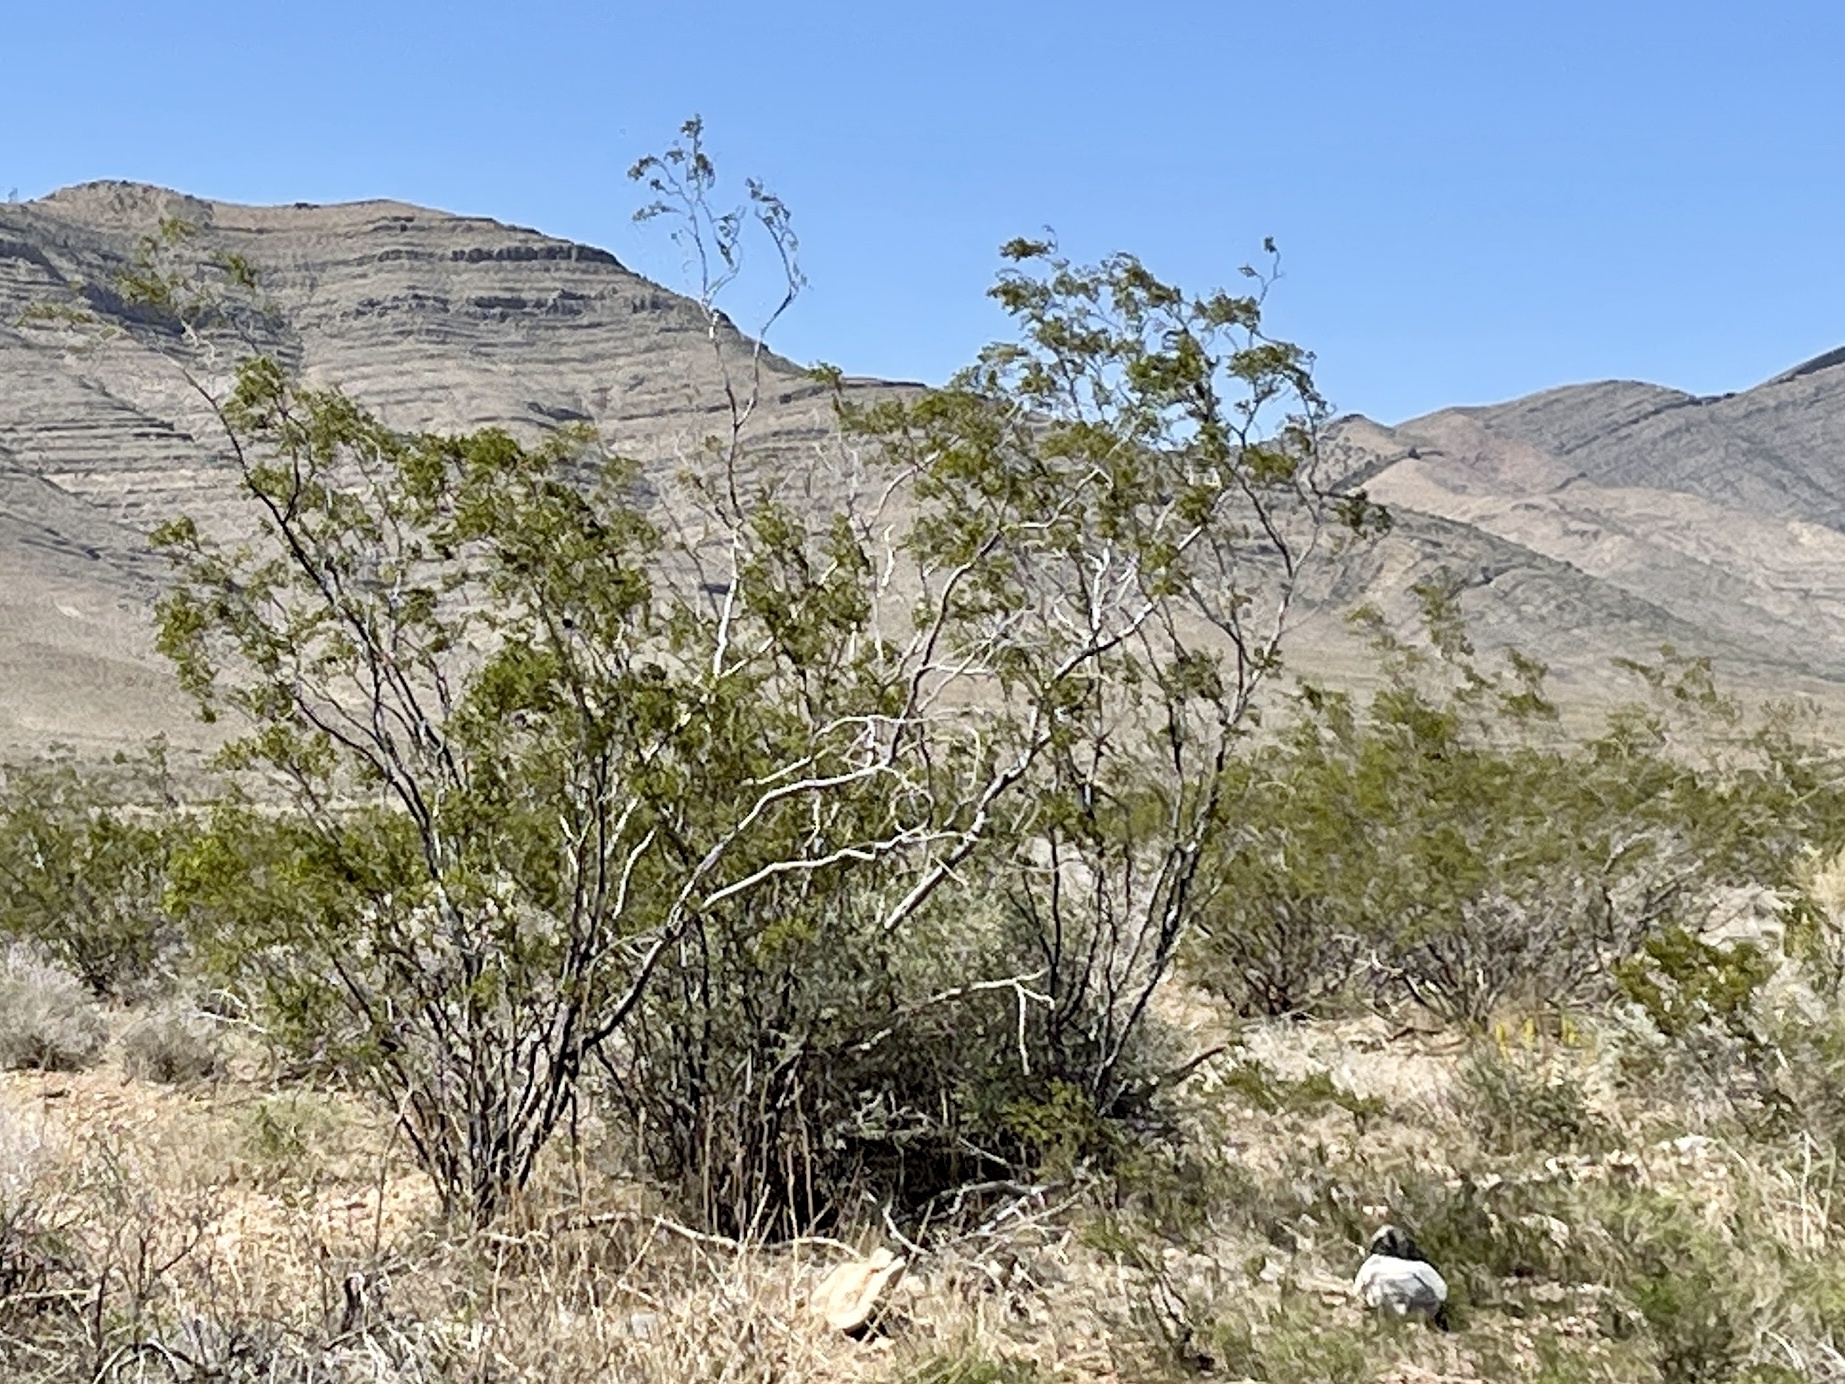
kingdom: Plantae
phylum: Tracheophyta
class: Magnoliopsida
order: Zygophyllales
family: Zygophyllaceae
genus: Larrea
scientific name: Larrea tridentata
